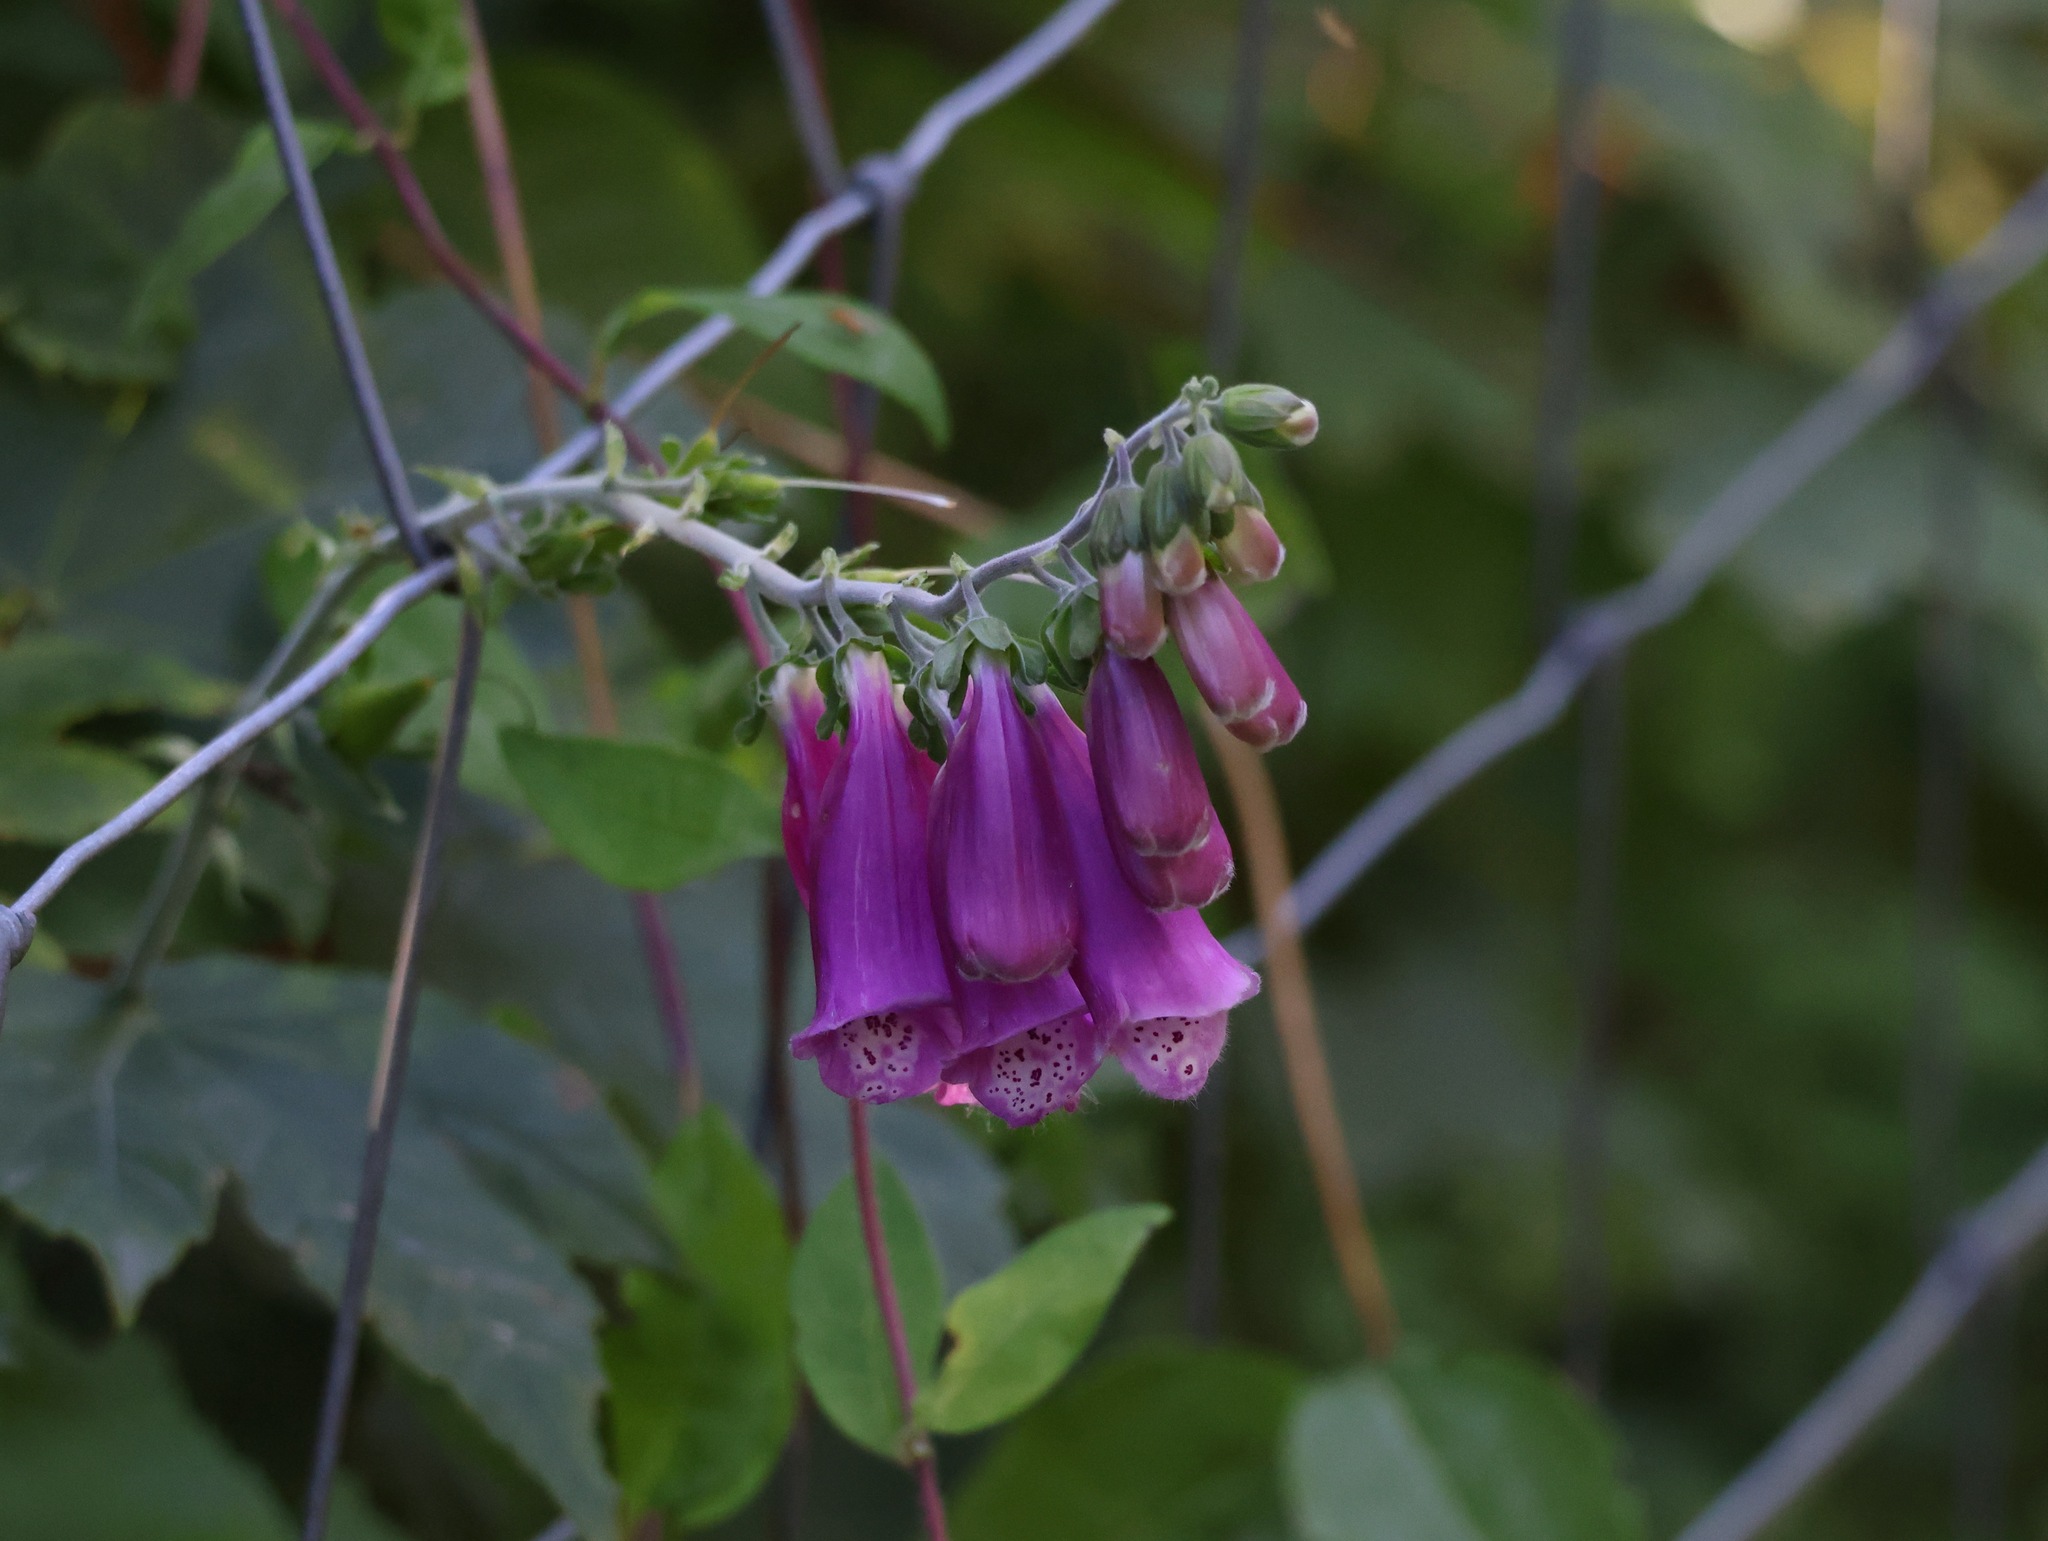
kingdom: Plantae
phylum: Tracheophyta
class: Magnoliopsida
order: Lamiales
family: Plantaginaceae
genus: Digitalis
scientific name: Digitalis purpurea
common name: Foxglove
